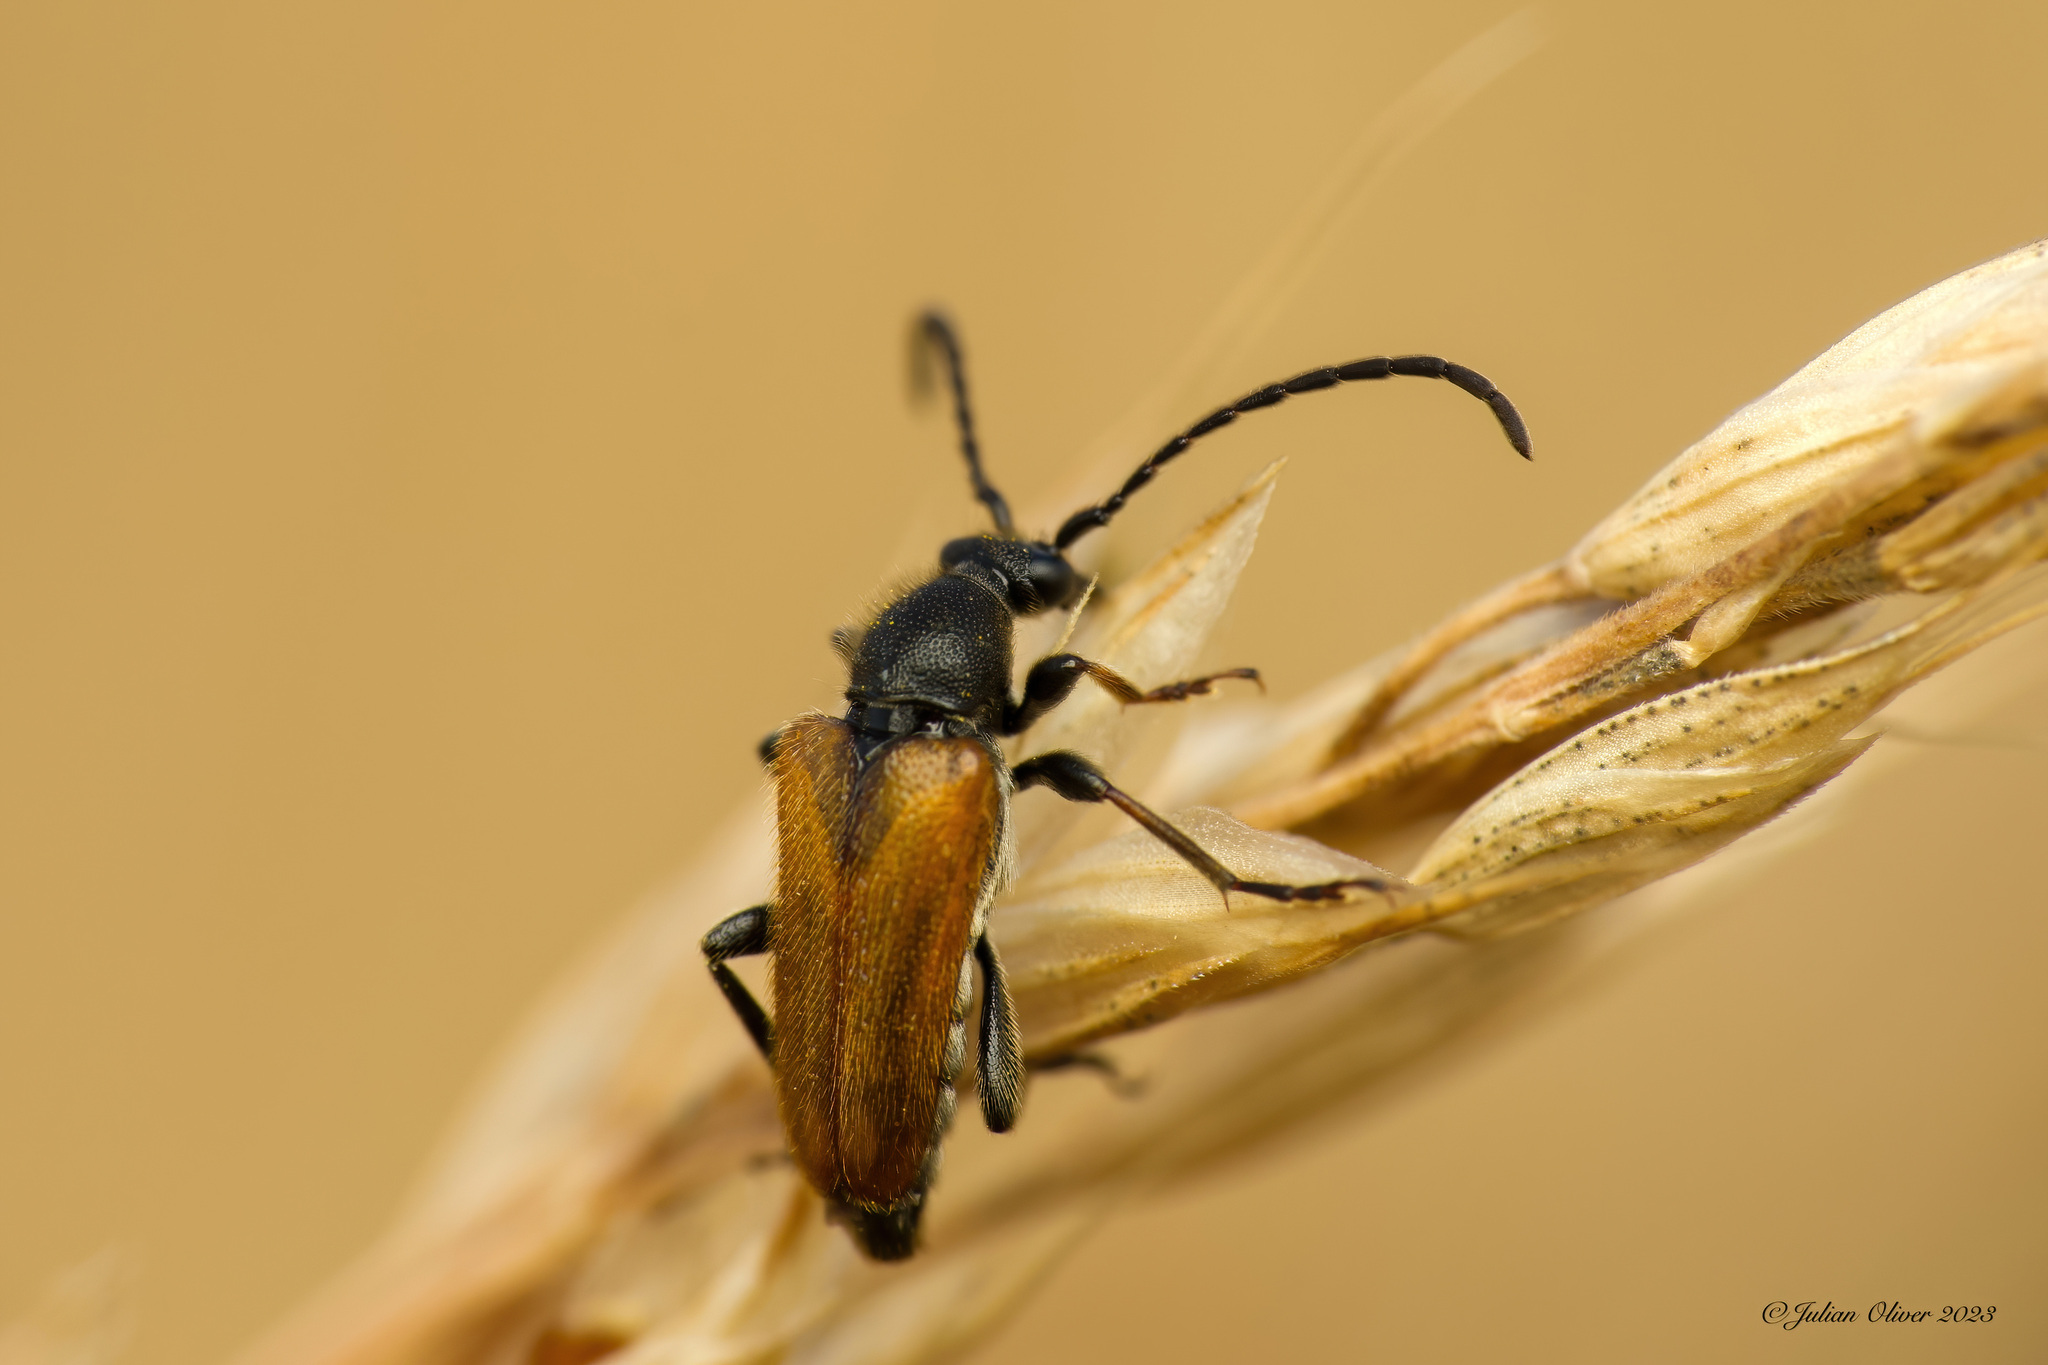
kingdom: Animalia
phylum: Arthropoda
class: Insecta
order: Coleoptera
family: Cerambycidae
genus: Pseudovadonia
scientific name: Pseudovadonia livida
